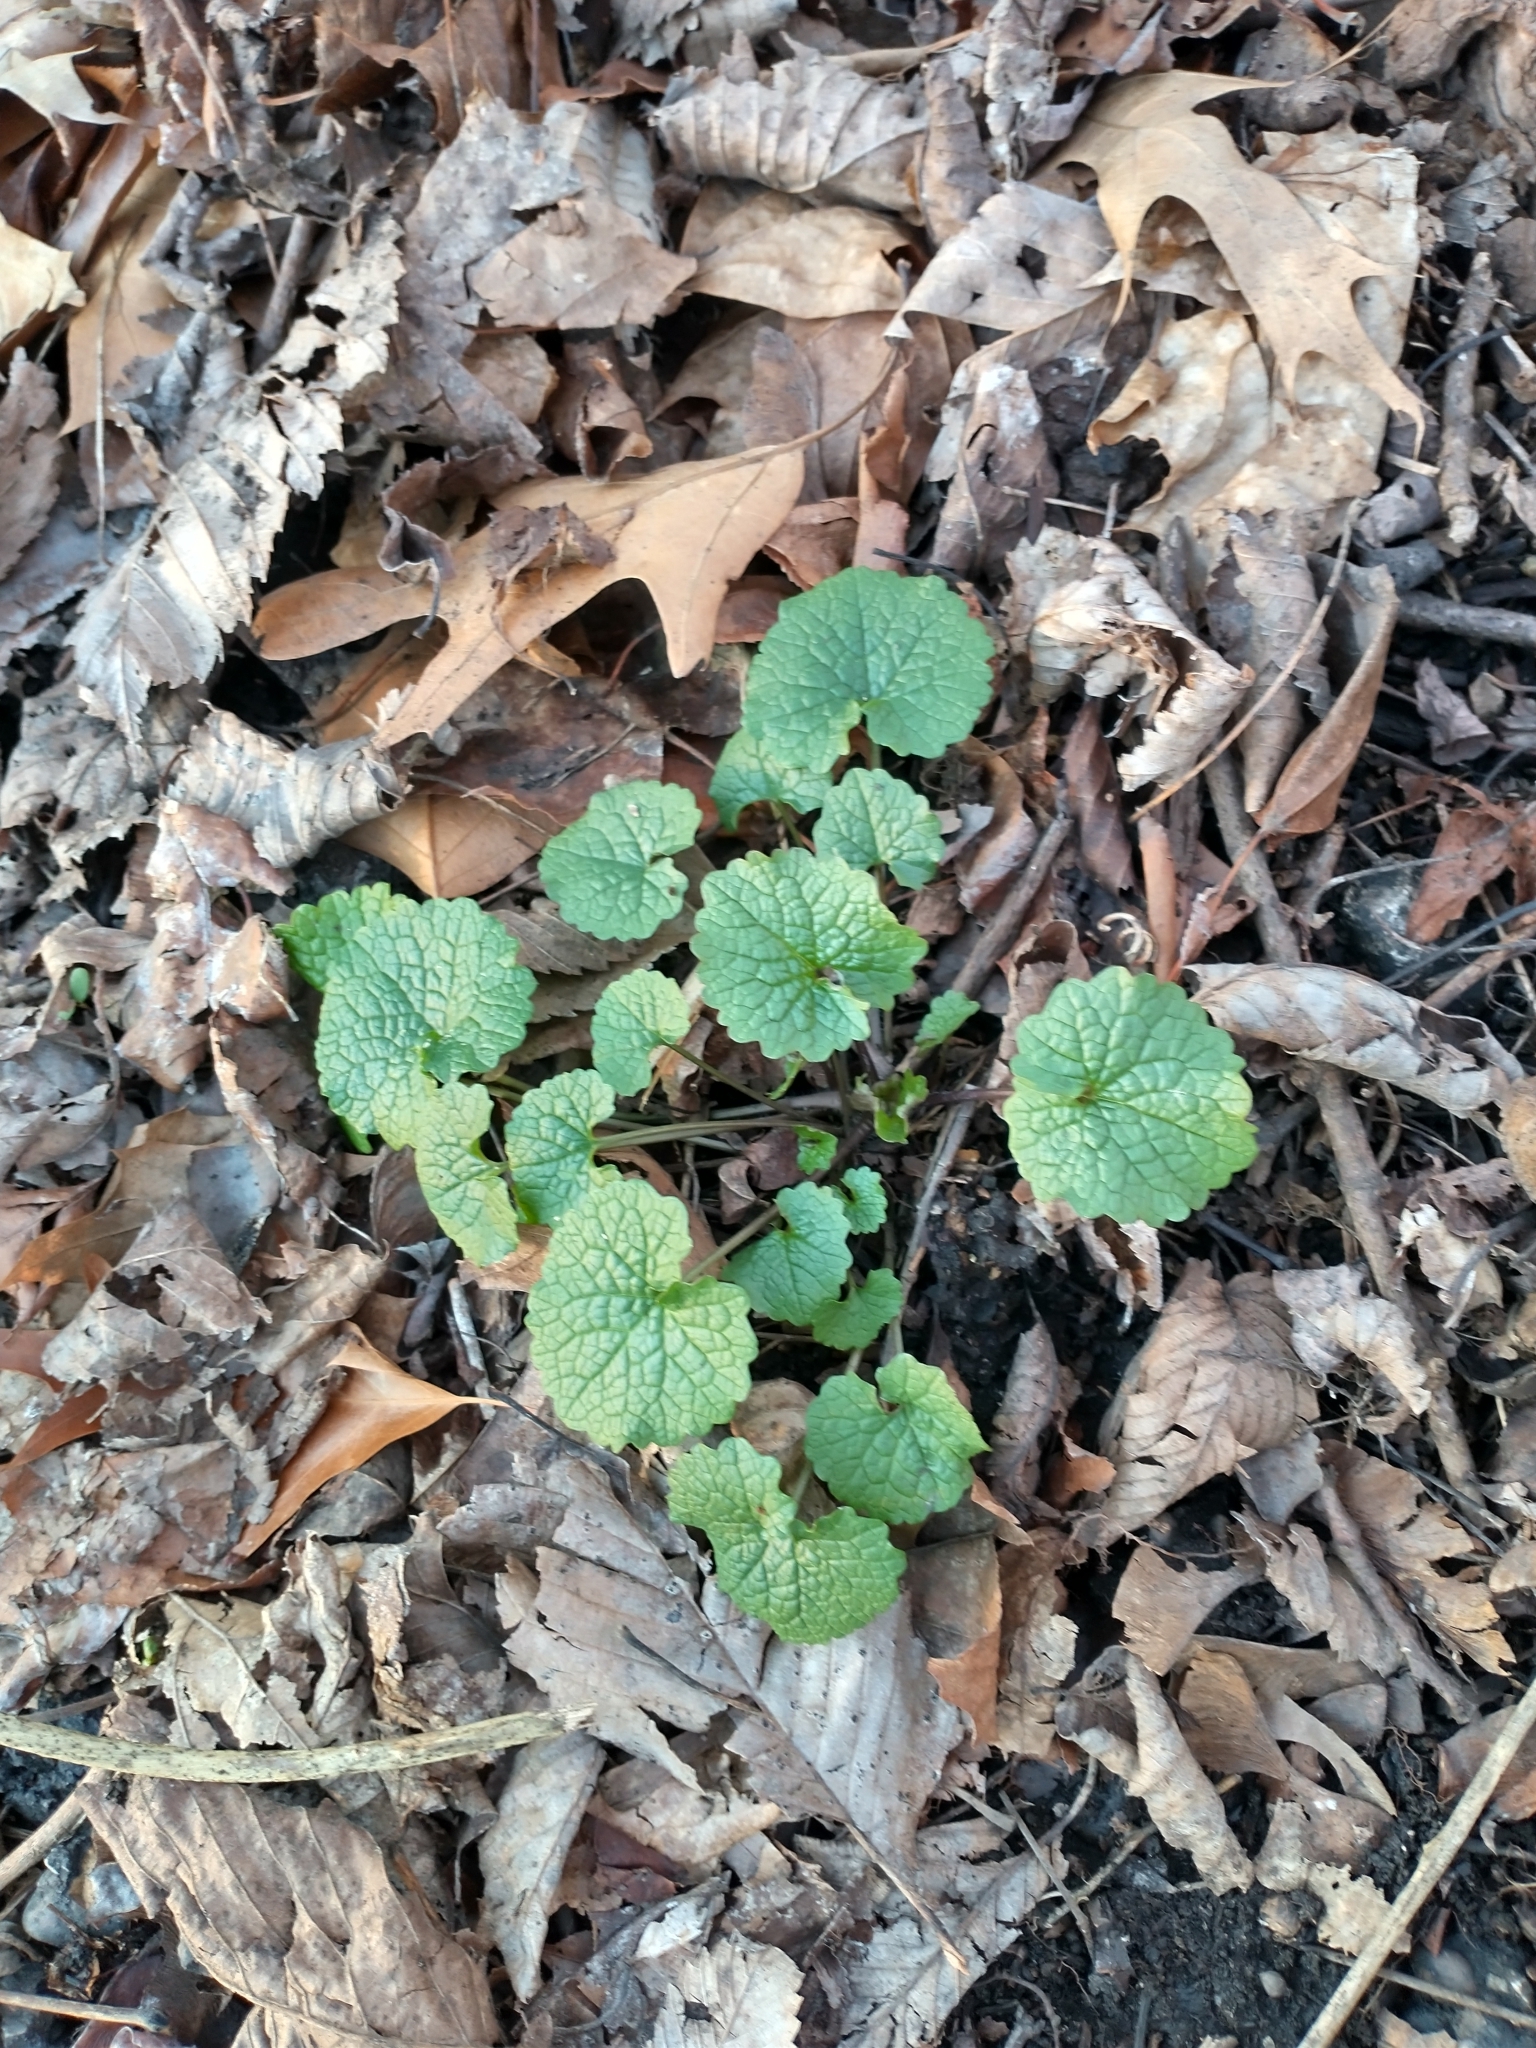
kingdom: Plantae
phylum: Tracheophyta
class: Magnoliopsida
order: Brassicales
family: Brassicaceae
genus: Alliaria
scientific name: Alliaria petiolata
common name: Garlic mustard
